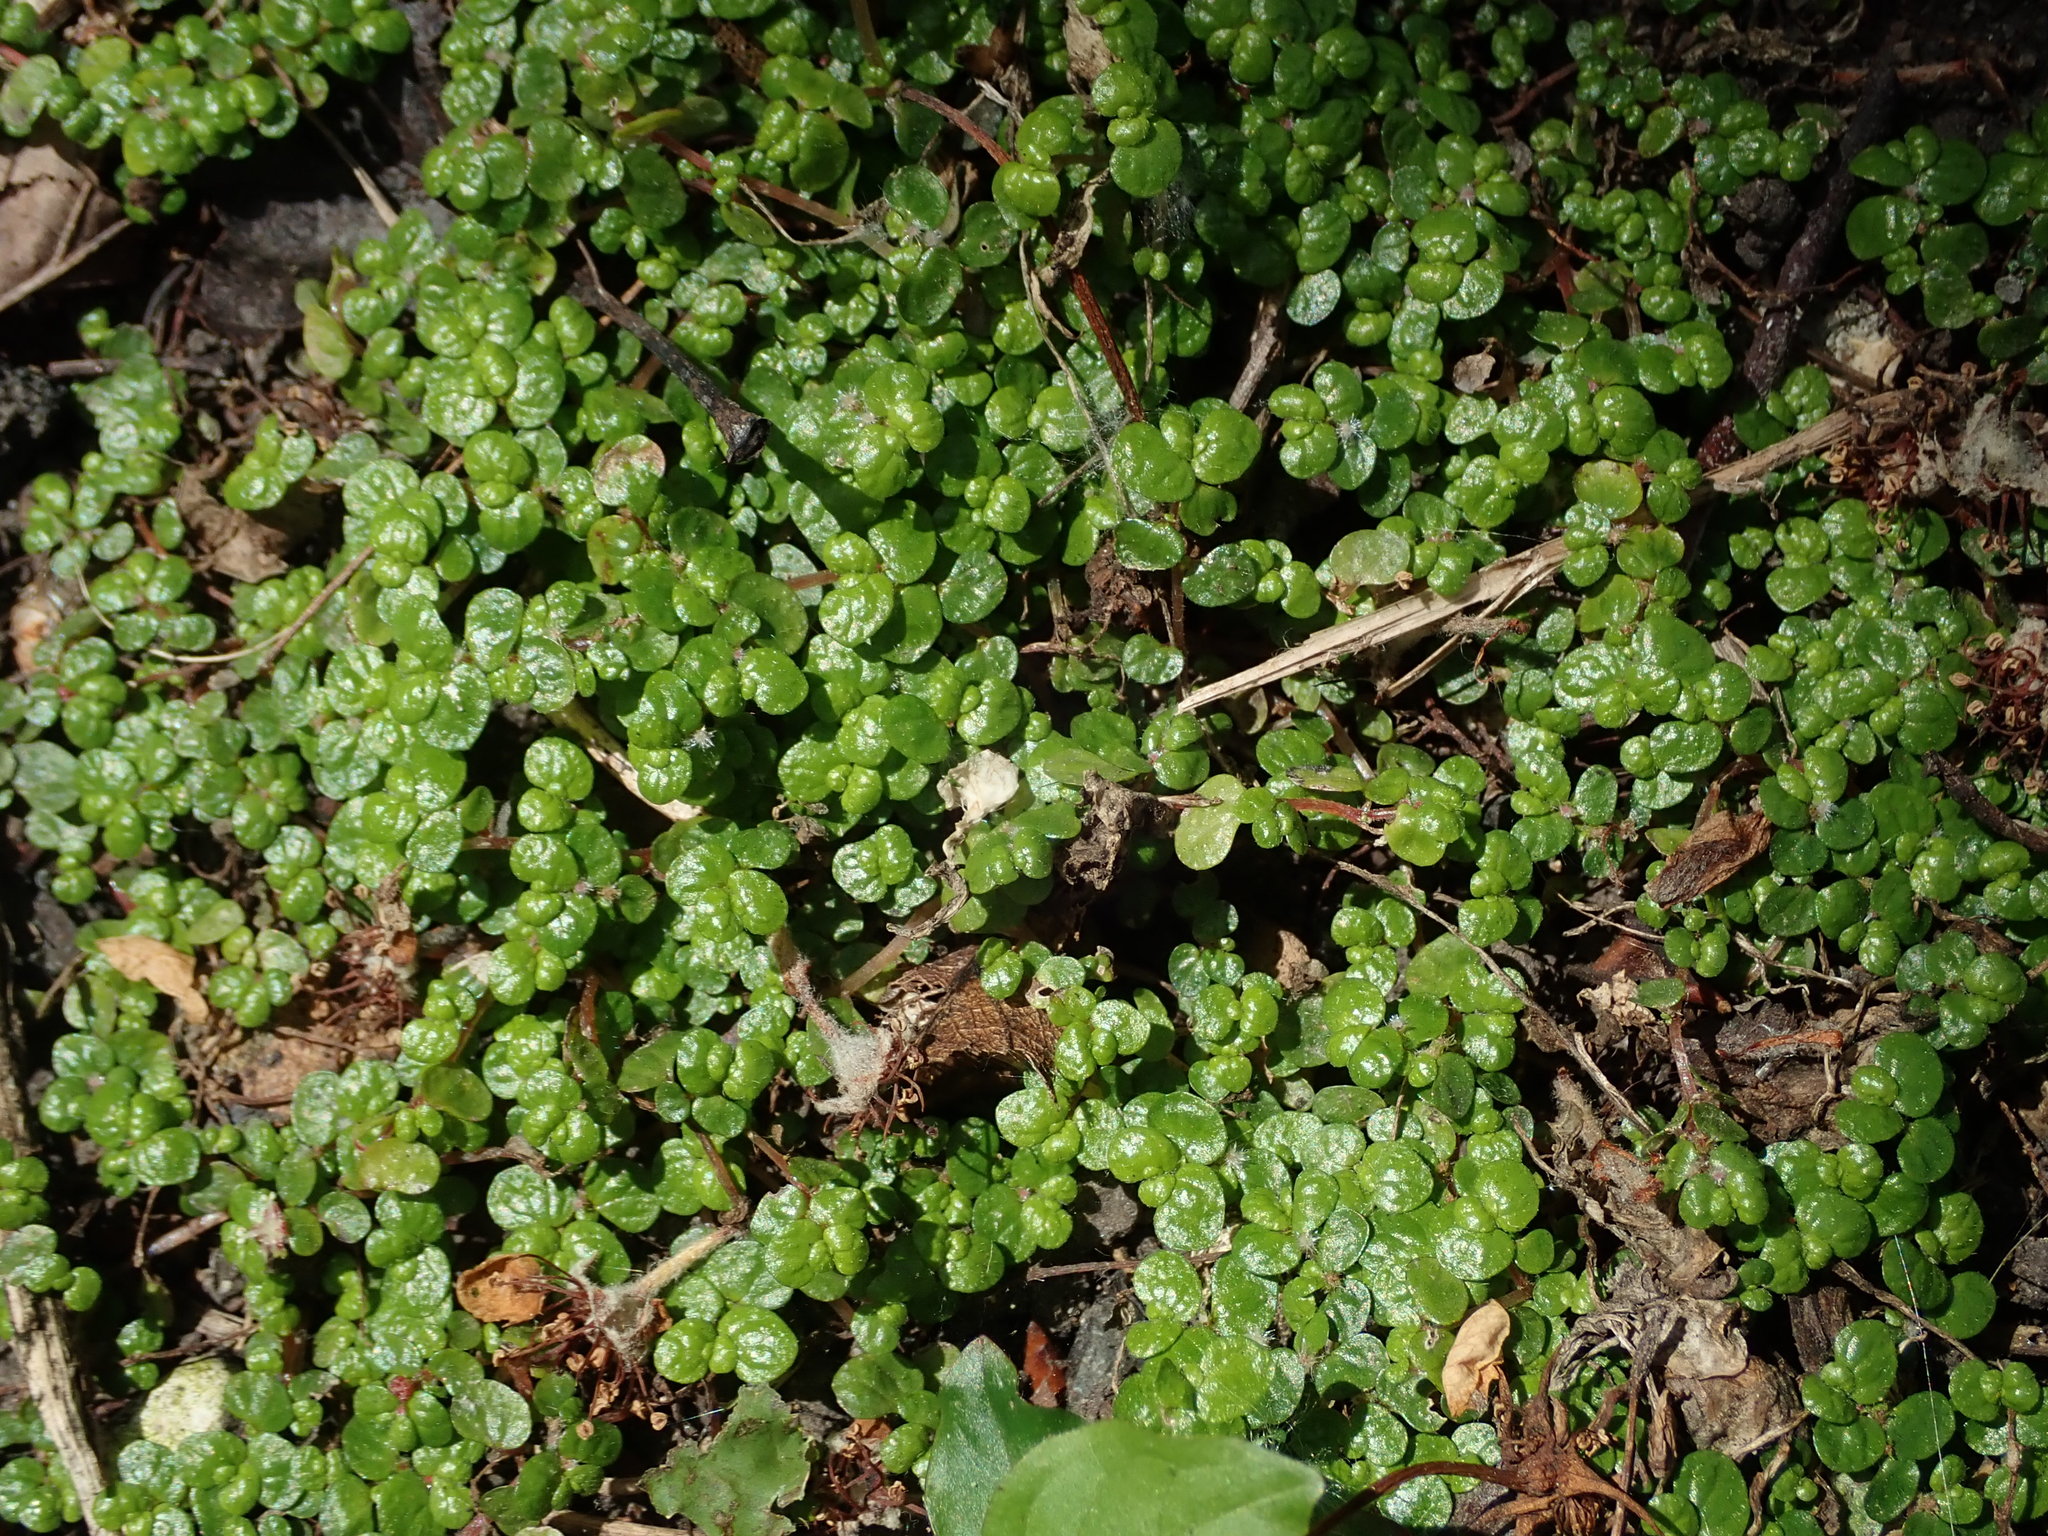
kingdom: Plantae
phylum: Tracheophyta
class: Magnoliopsida
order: Rosales
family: Urticaceae
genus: Soleirolia
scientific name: Soleirolia soleirolii
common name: Mind-your-own-business
